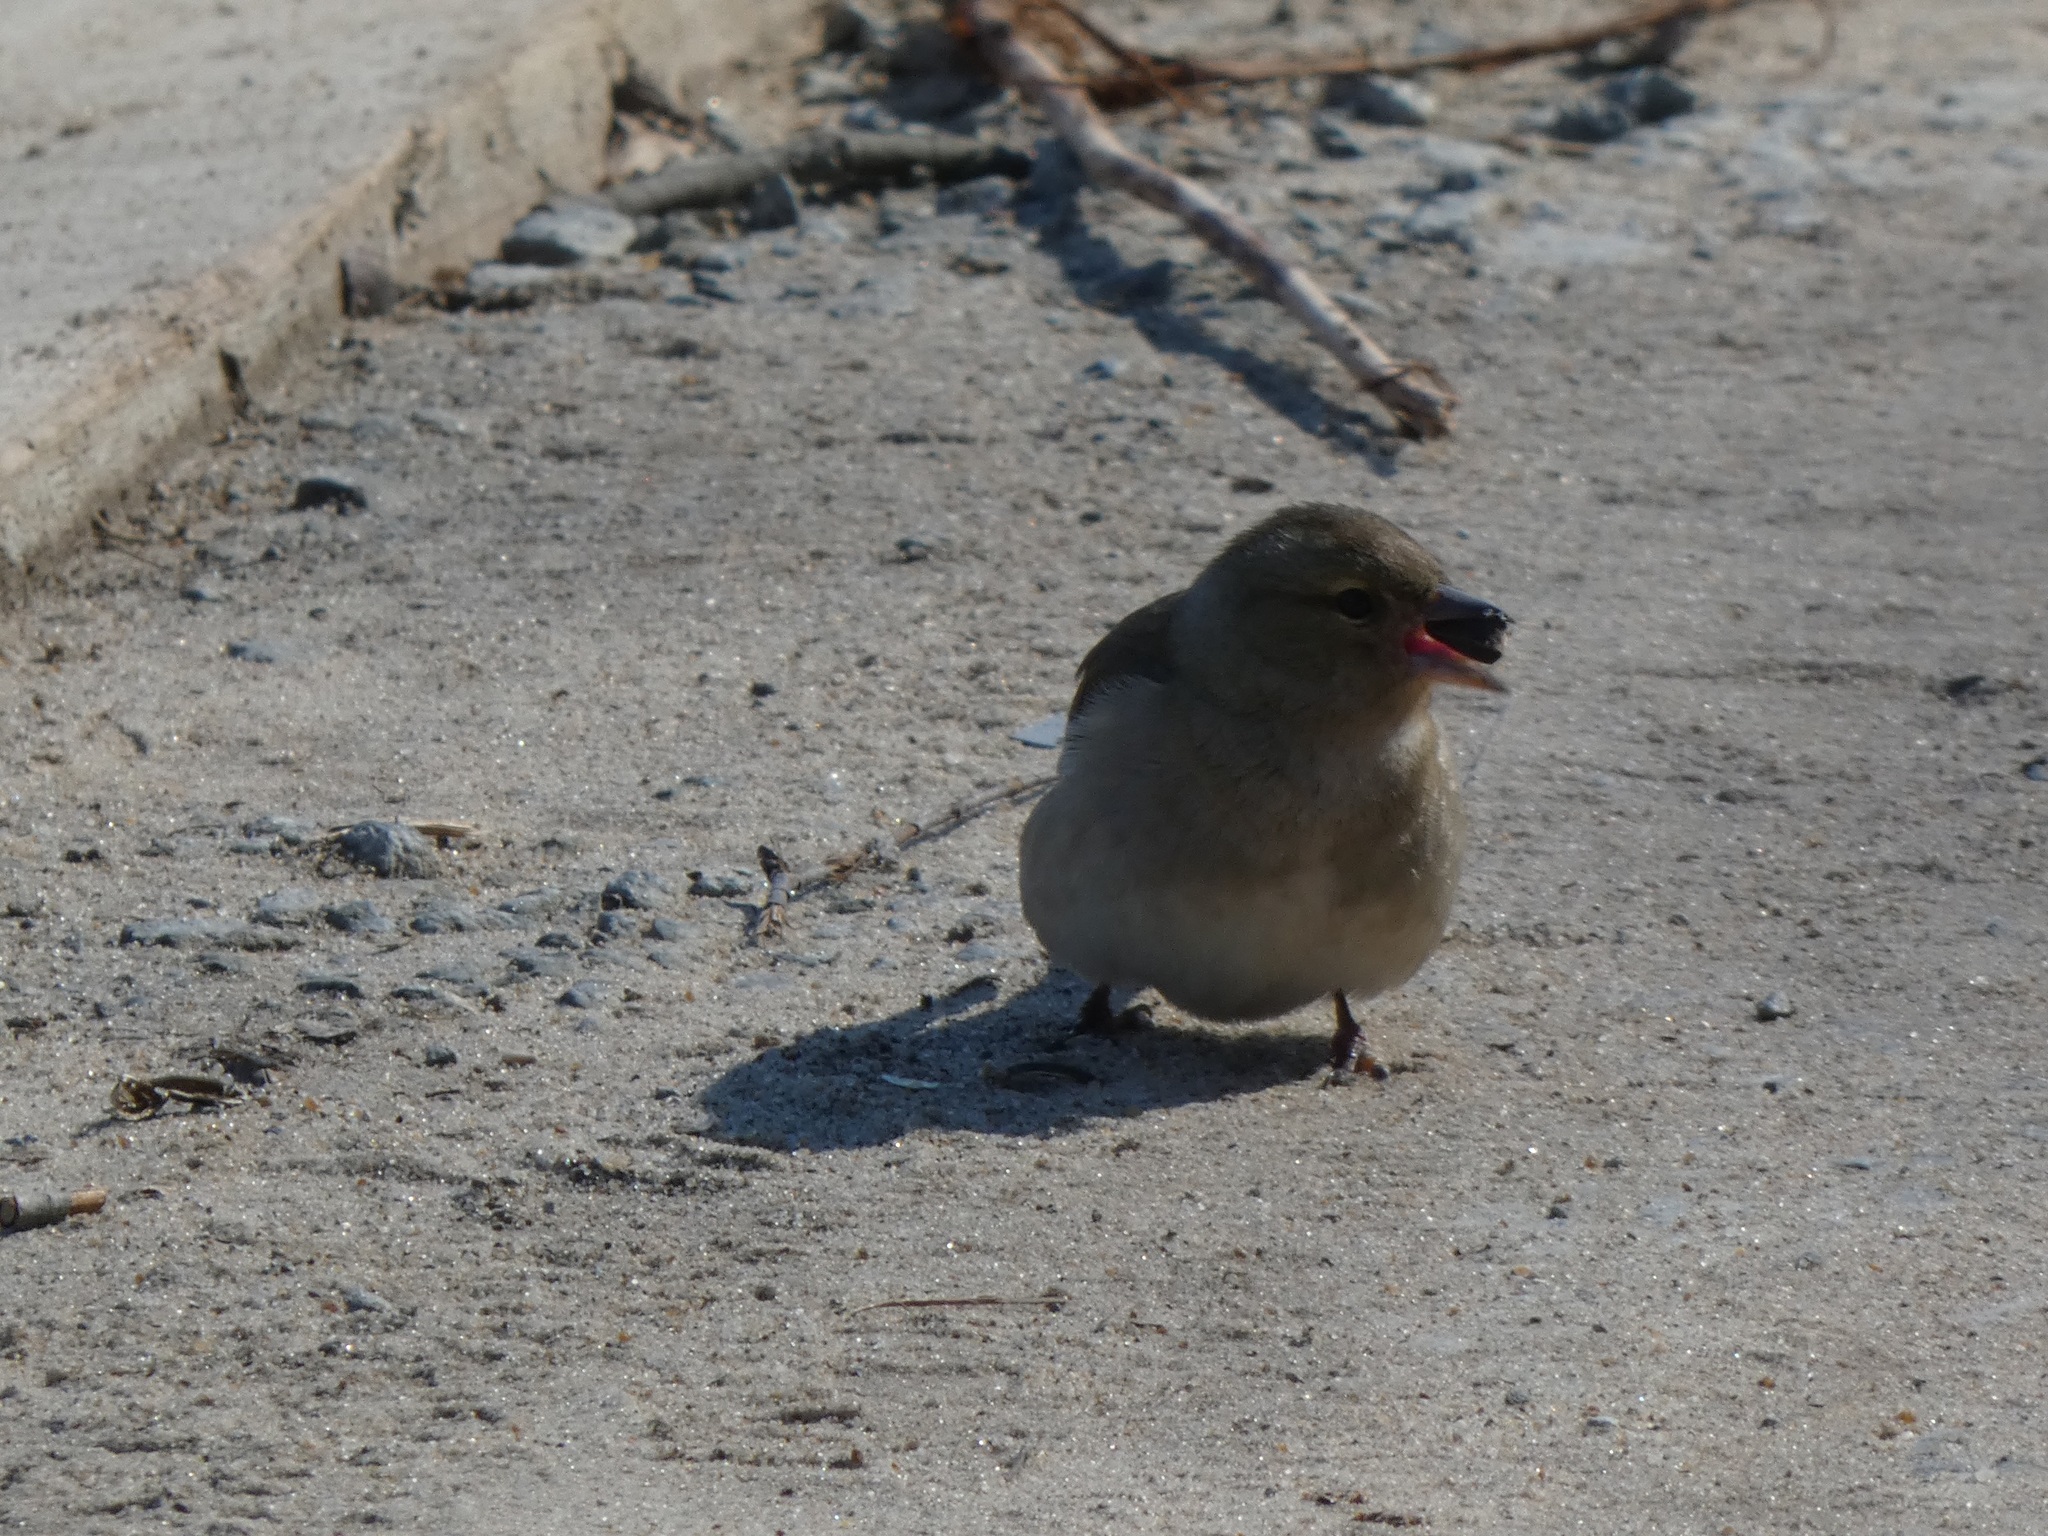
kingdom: Animalia
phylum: Chordata
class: Aves
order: Passeriformes
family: Fringillidae
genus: Fringilla
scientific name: Fringilla coelebs
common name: Common chaffinch
